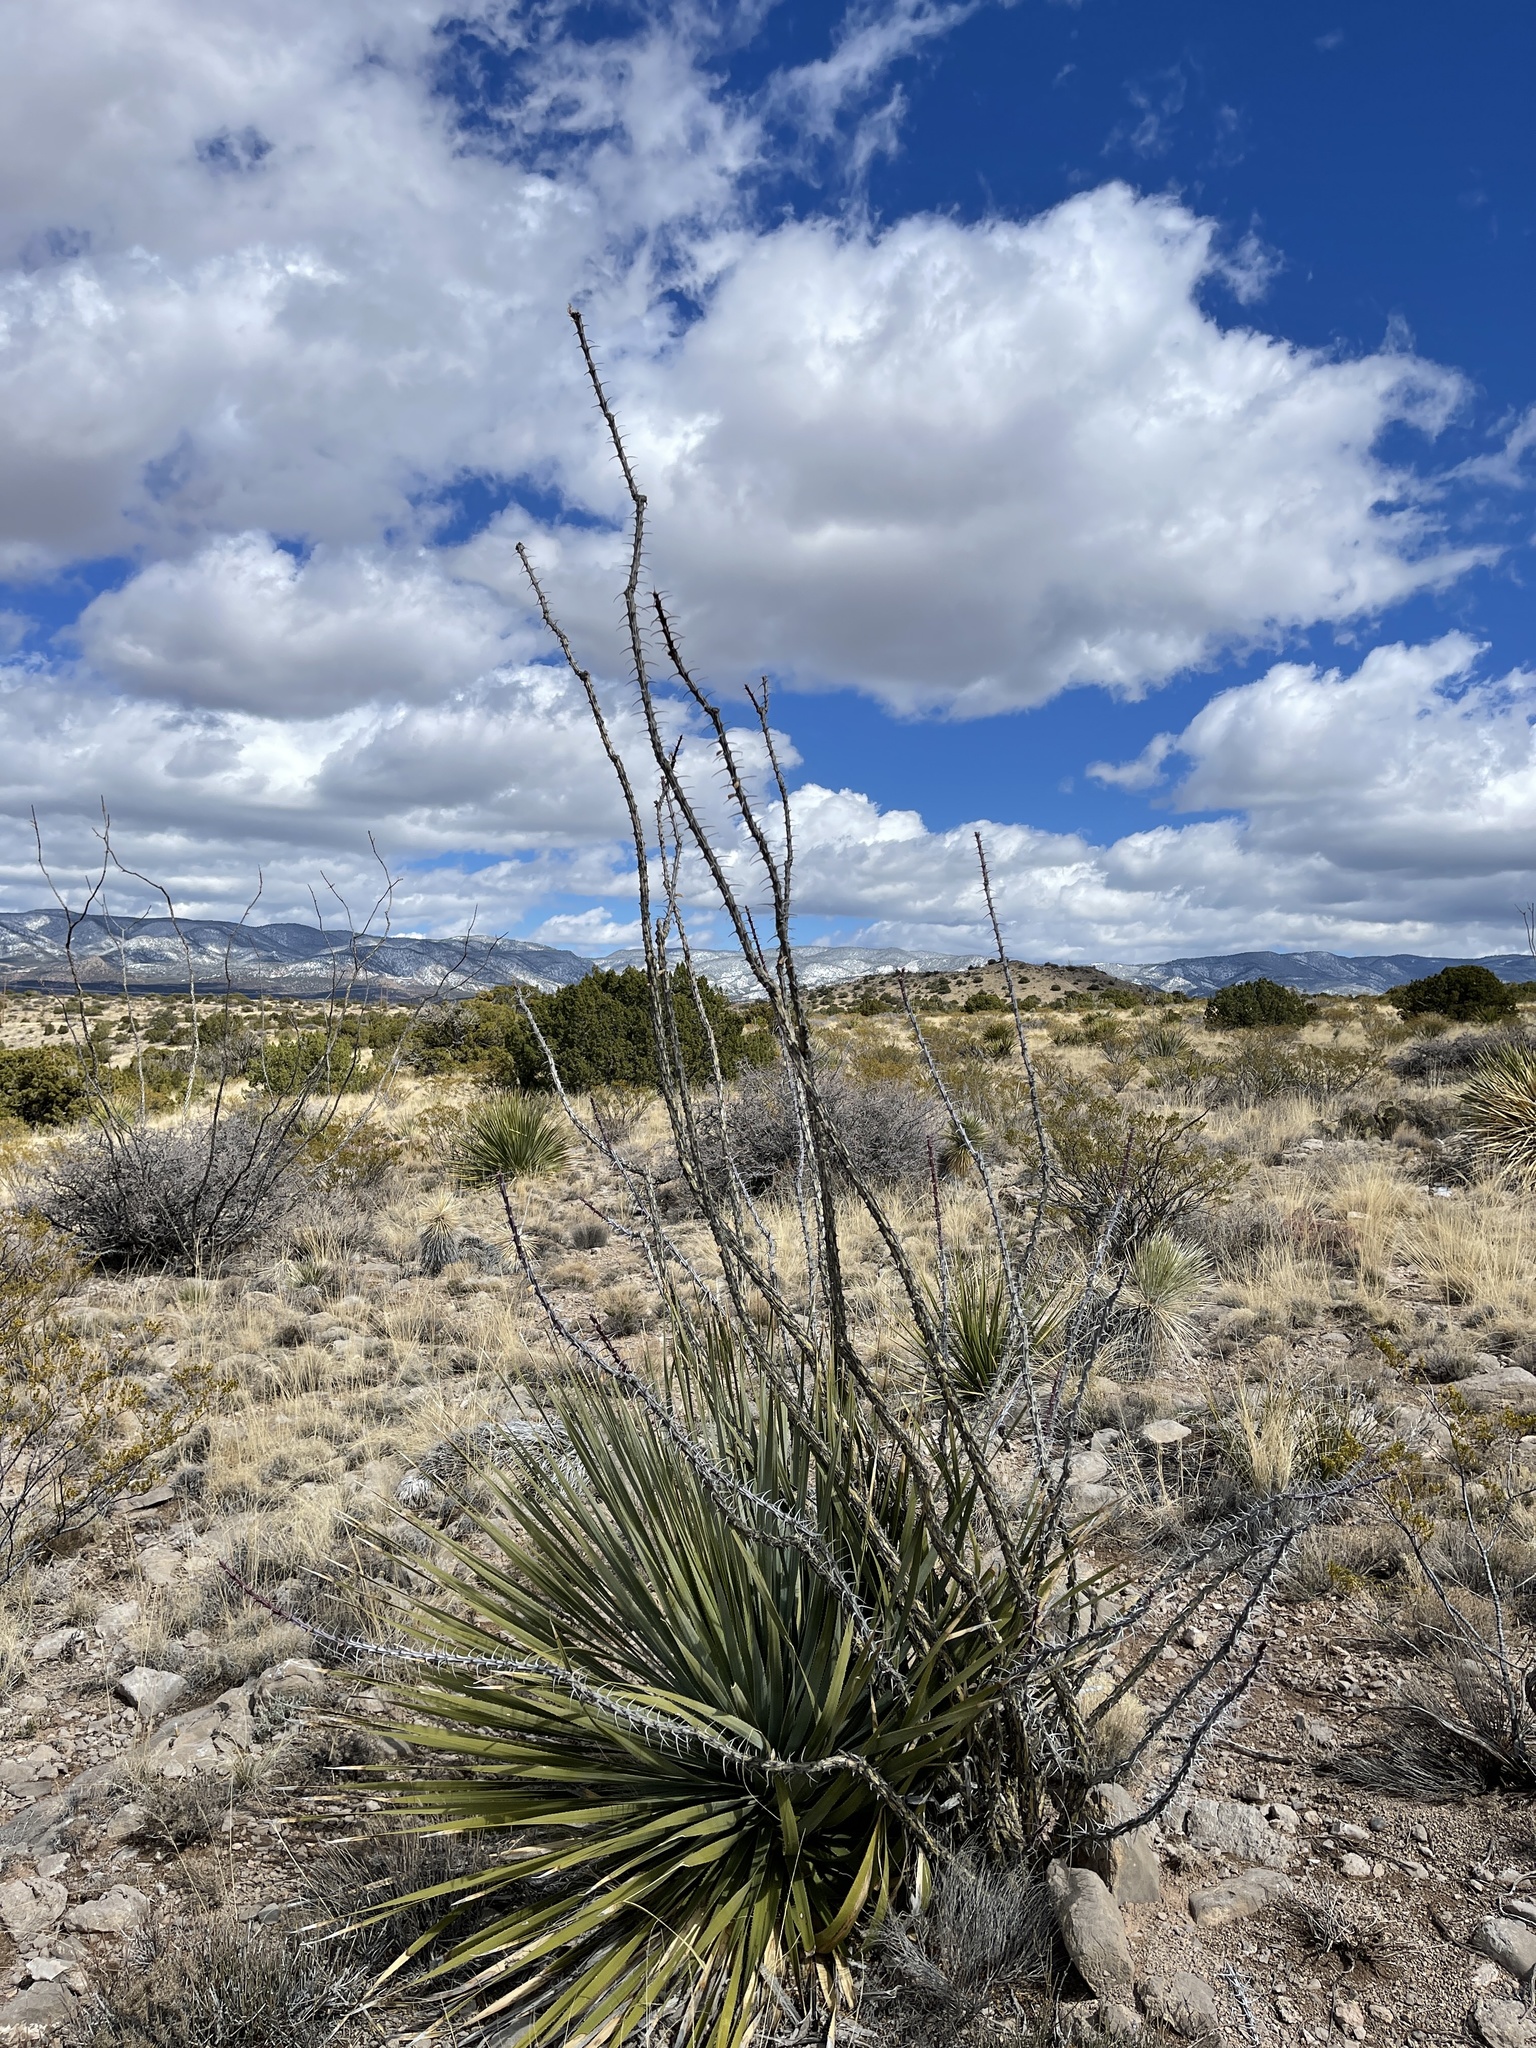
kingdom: Plantae
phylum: Tracheophyta
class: Magnoliopsida
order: Ericales
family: Fouquieriaceae
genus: Fouquieria
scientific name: Fouquieria splendens
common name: Vine-cactus
